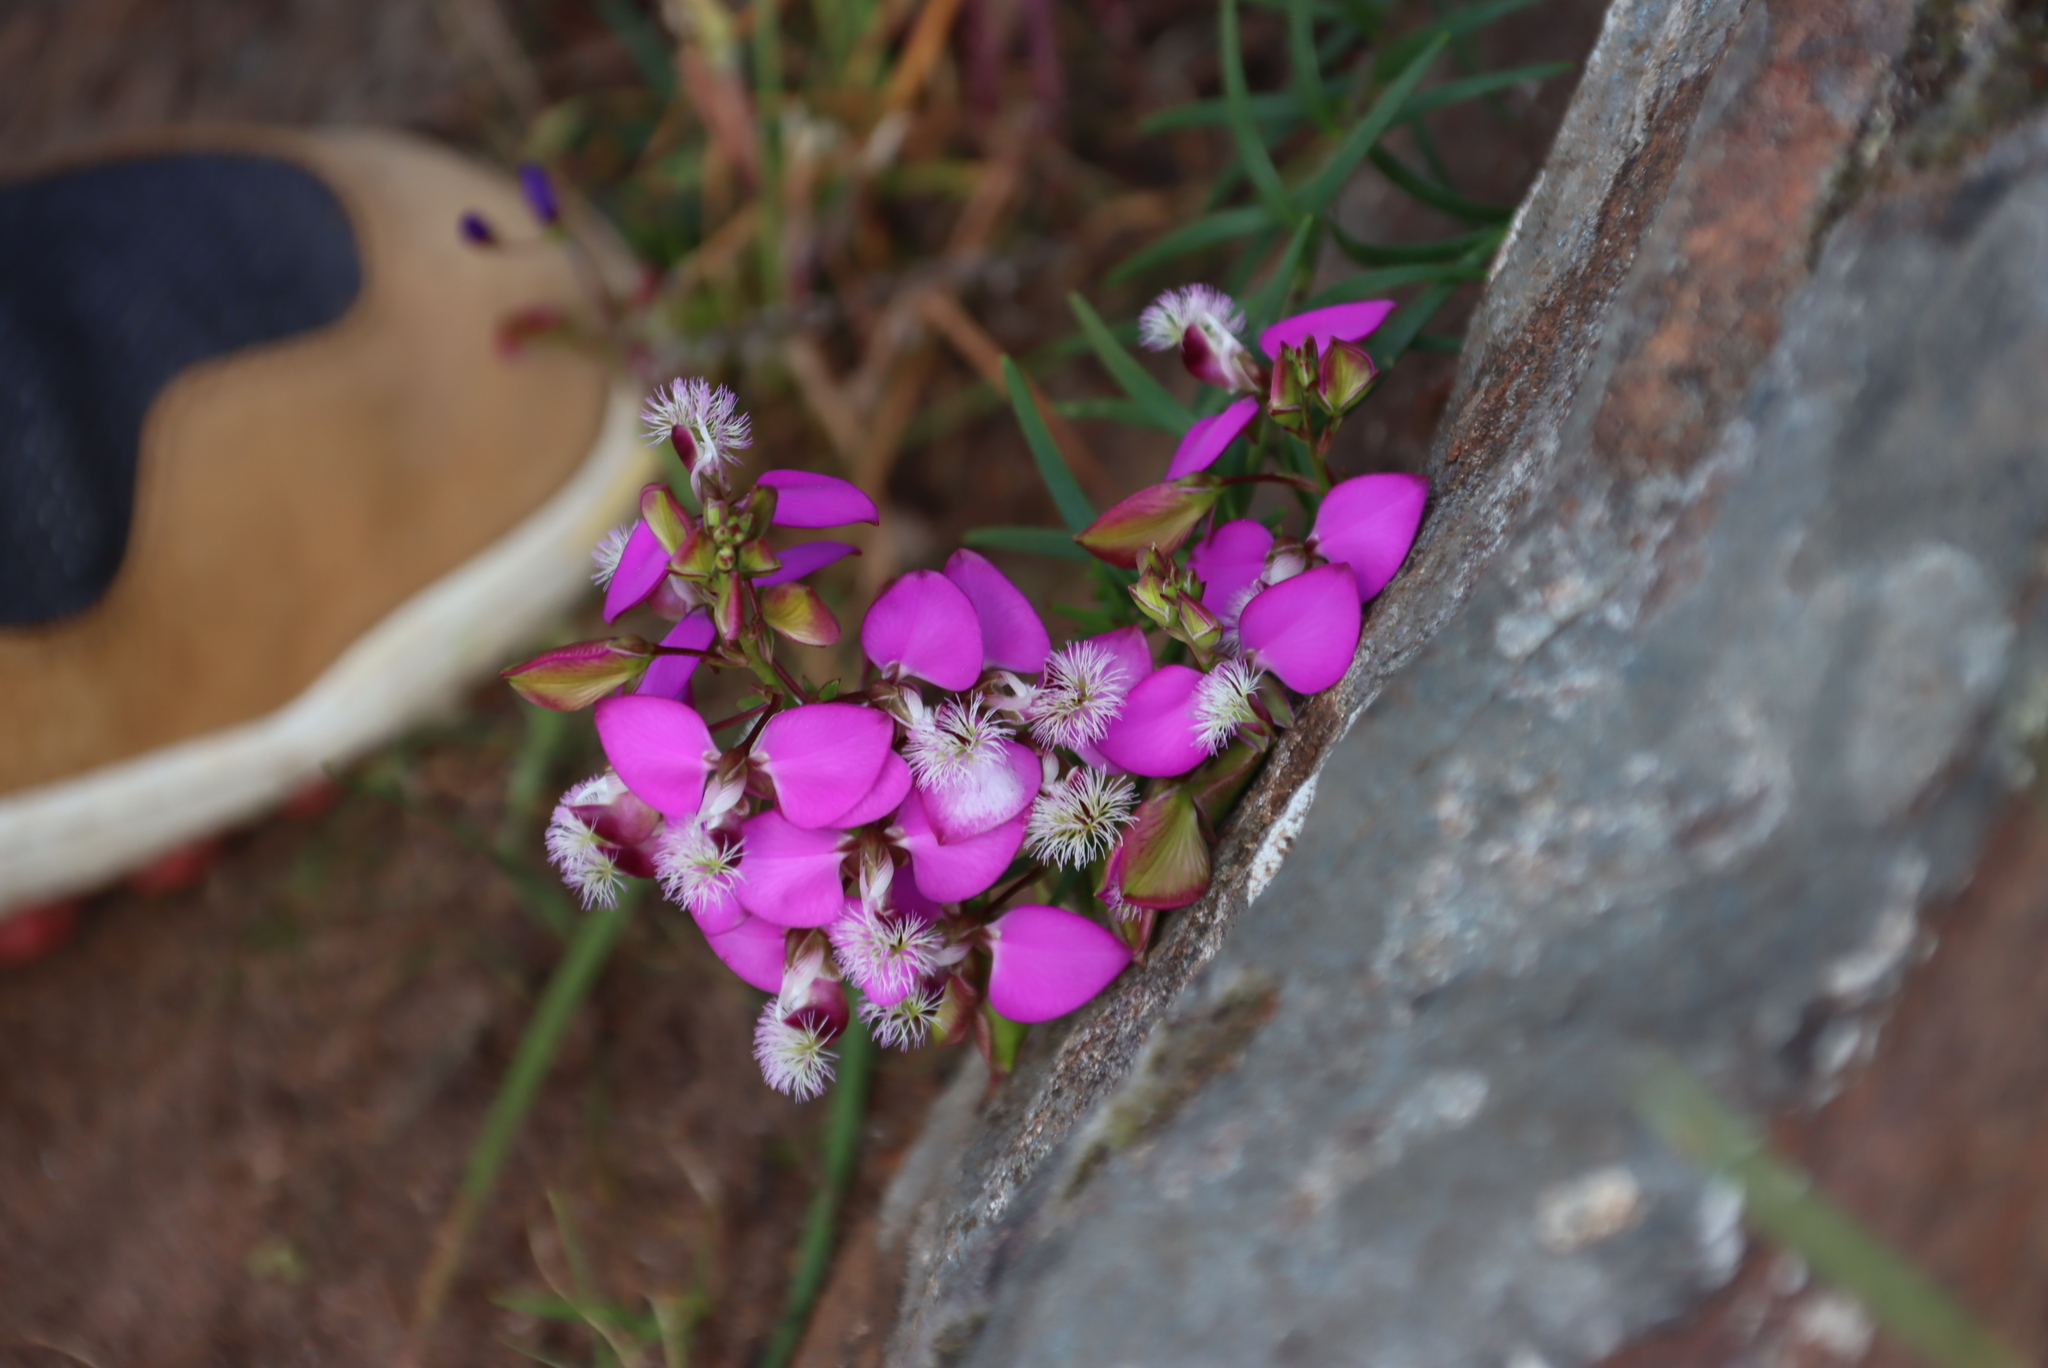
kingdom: Plantae
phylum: Tracheophyta
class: Magnoliopsida
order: Fabales
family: Polygalaceae
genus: Polygala
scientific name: Polygala bracteolata
